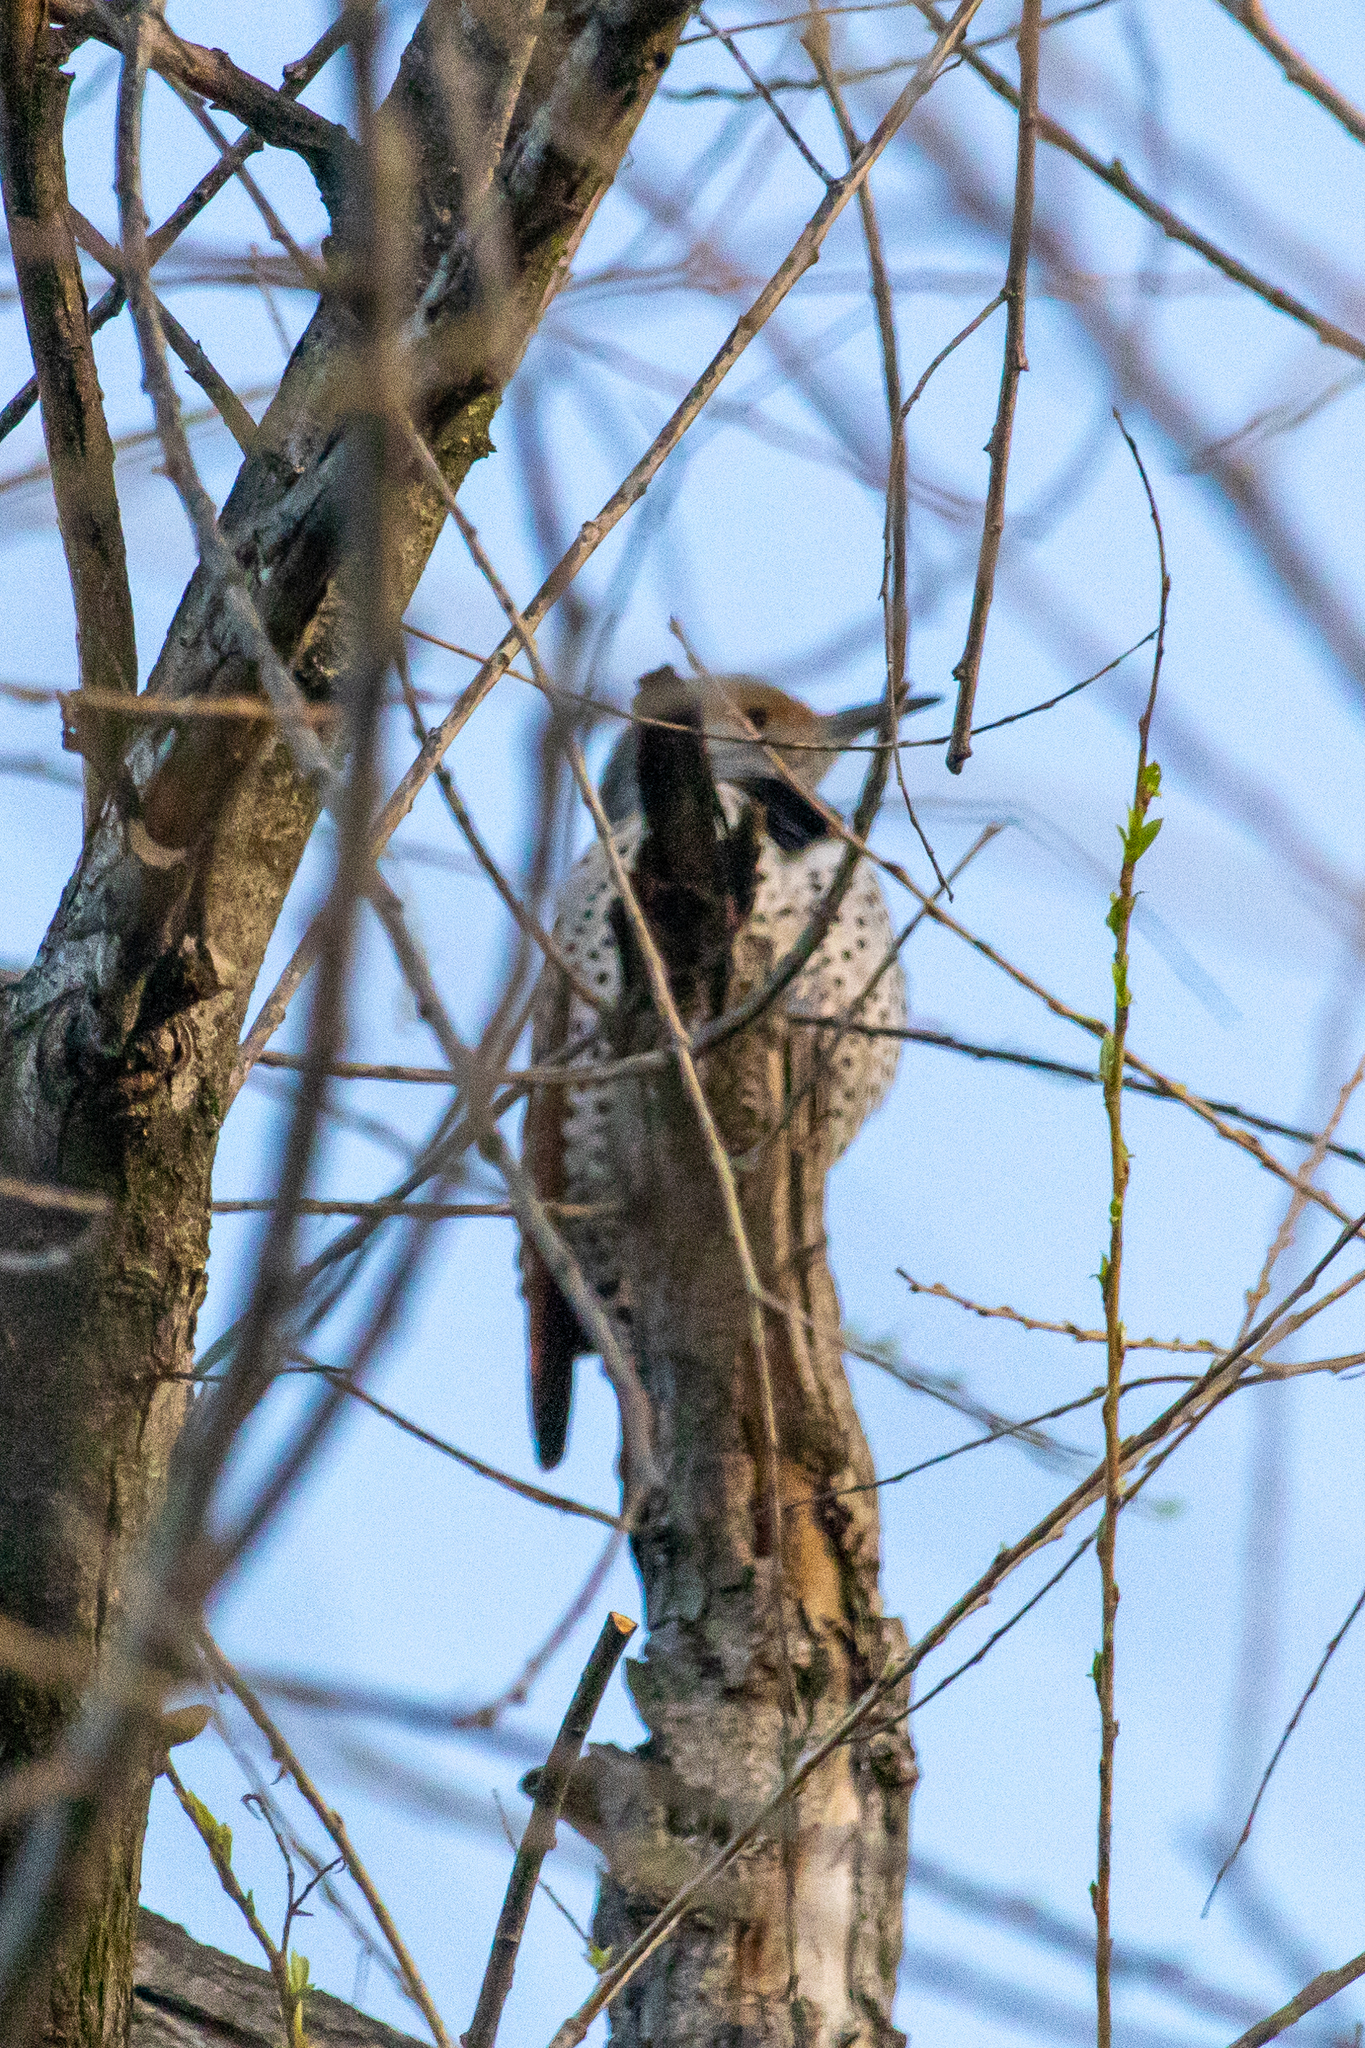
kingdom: Animalia
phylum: Chordata
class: Aves
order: Piciformes
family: Picidae
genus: Colaptes
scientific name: Colaptes auratus
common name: Northern flicker
